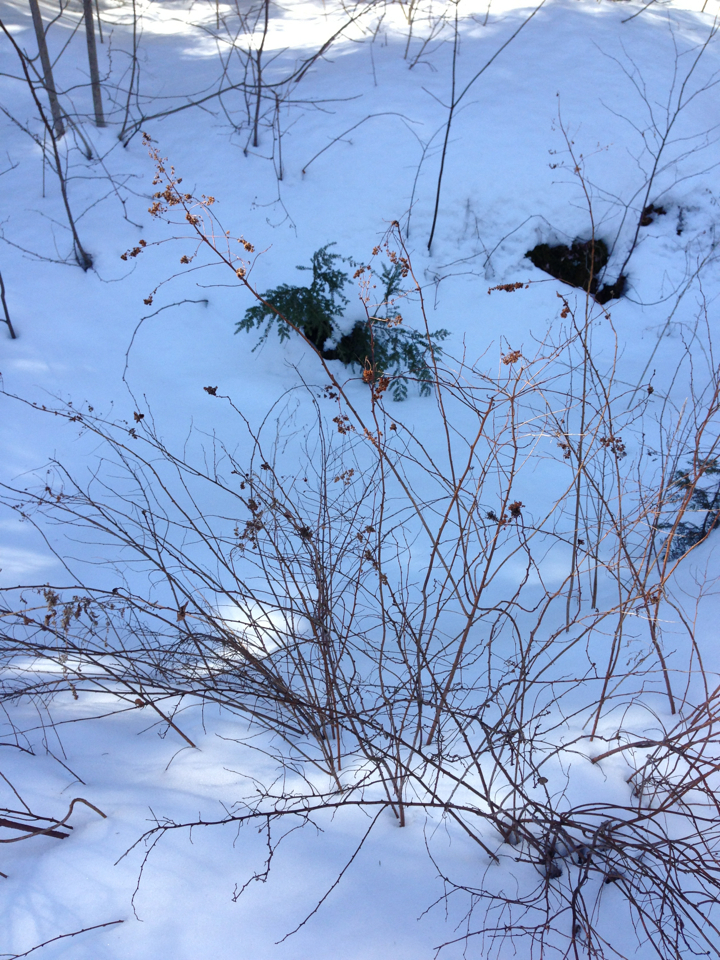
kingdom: Plantae
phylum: Tracheophyta
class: Magnoliopsida
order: Rosales
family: Rosaceae
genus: Spiraea
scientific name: Spiraea alba
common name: Pale bridewort
